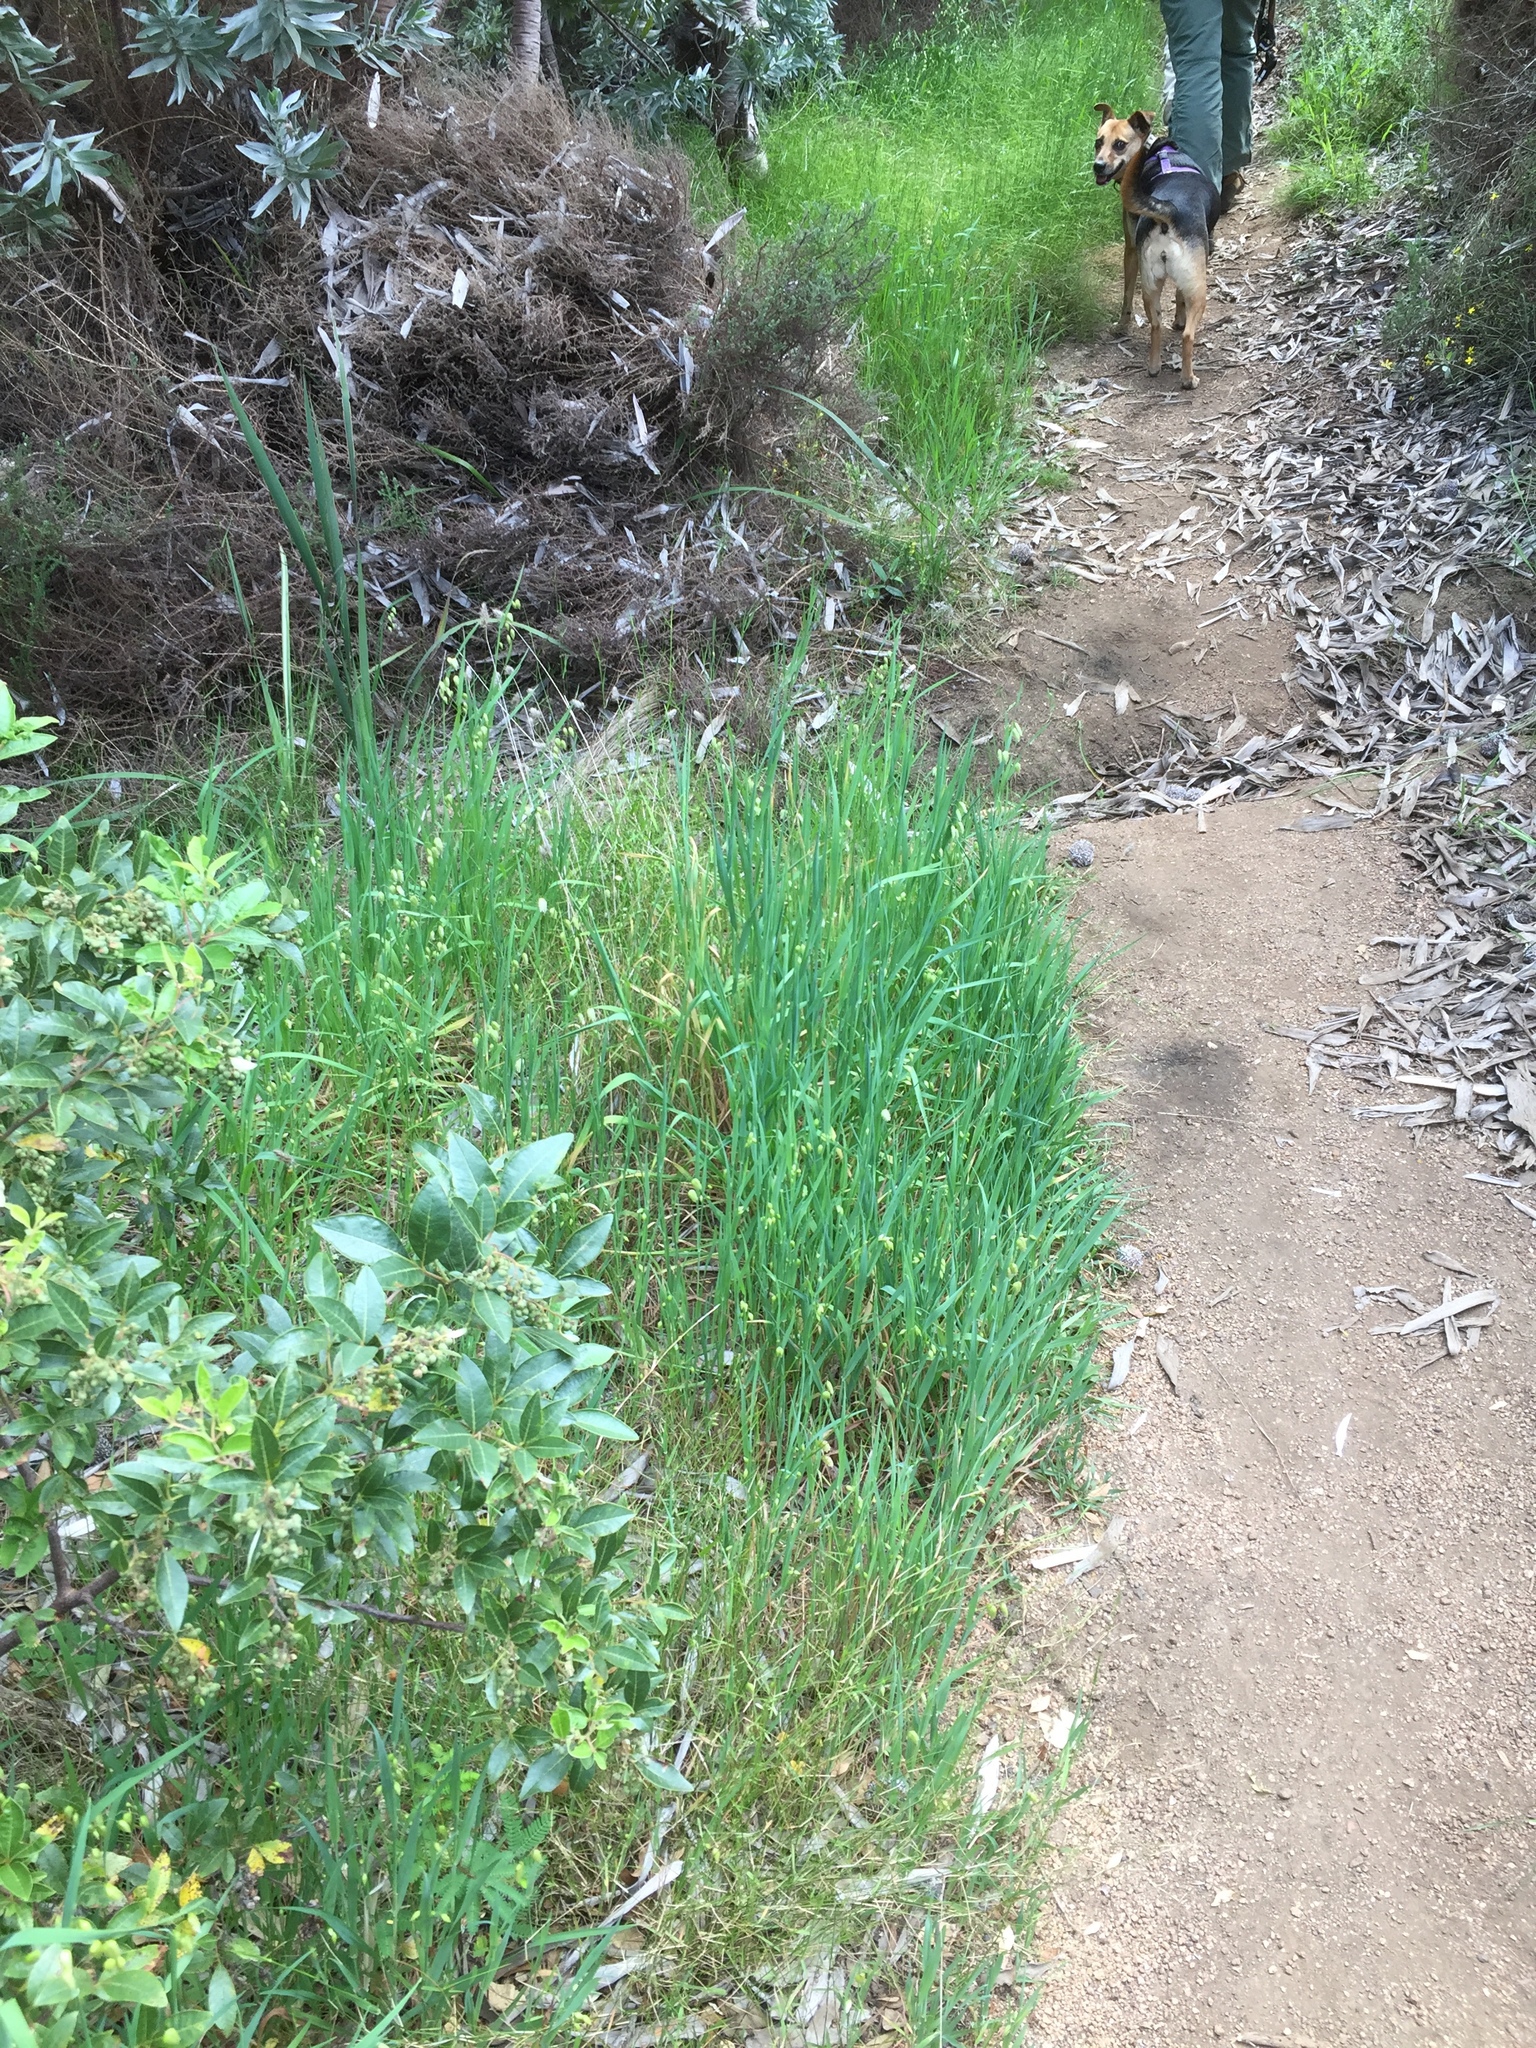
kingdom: Plantae
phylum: Tracheophyta
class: Liliopsida
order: Poales
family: Poaceae
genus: Briza
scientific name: Briza maxima
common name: Big quakinggrass
